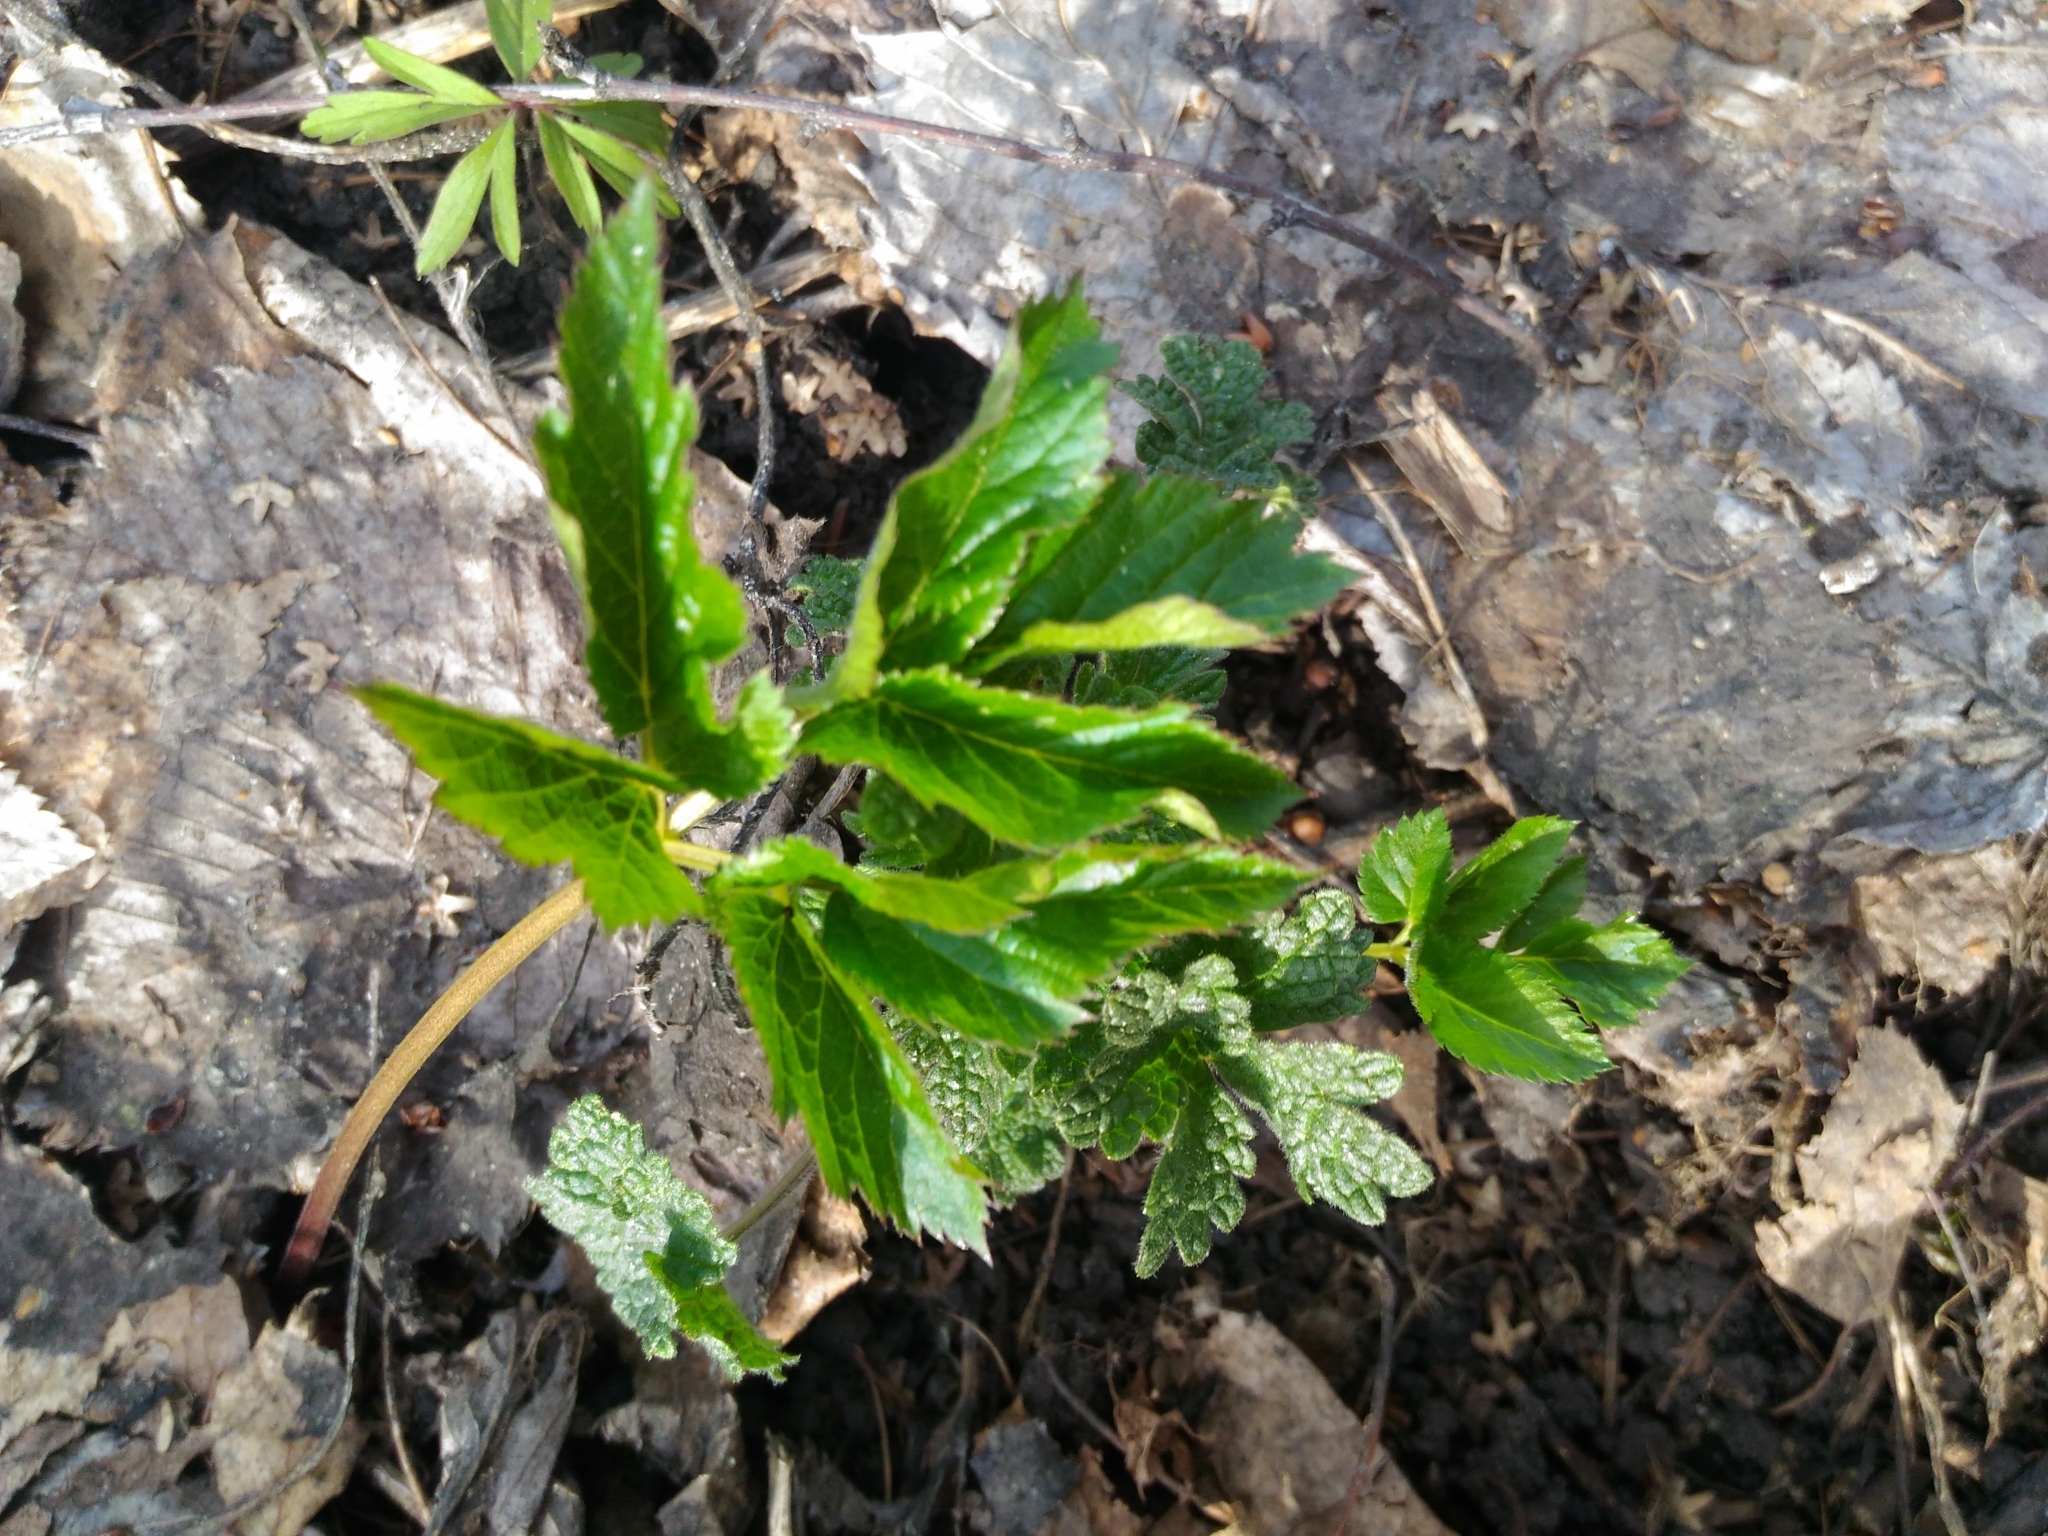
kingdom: Plantae
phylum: Tracheophyta
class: Magnoliopsida
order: Apiales
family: Apiaceae
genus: Aegopodium
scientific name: Aegopodium podagraria
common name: Ground-elder
